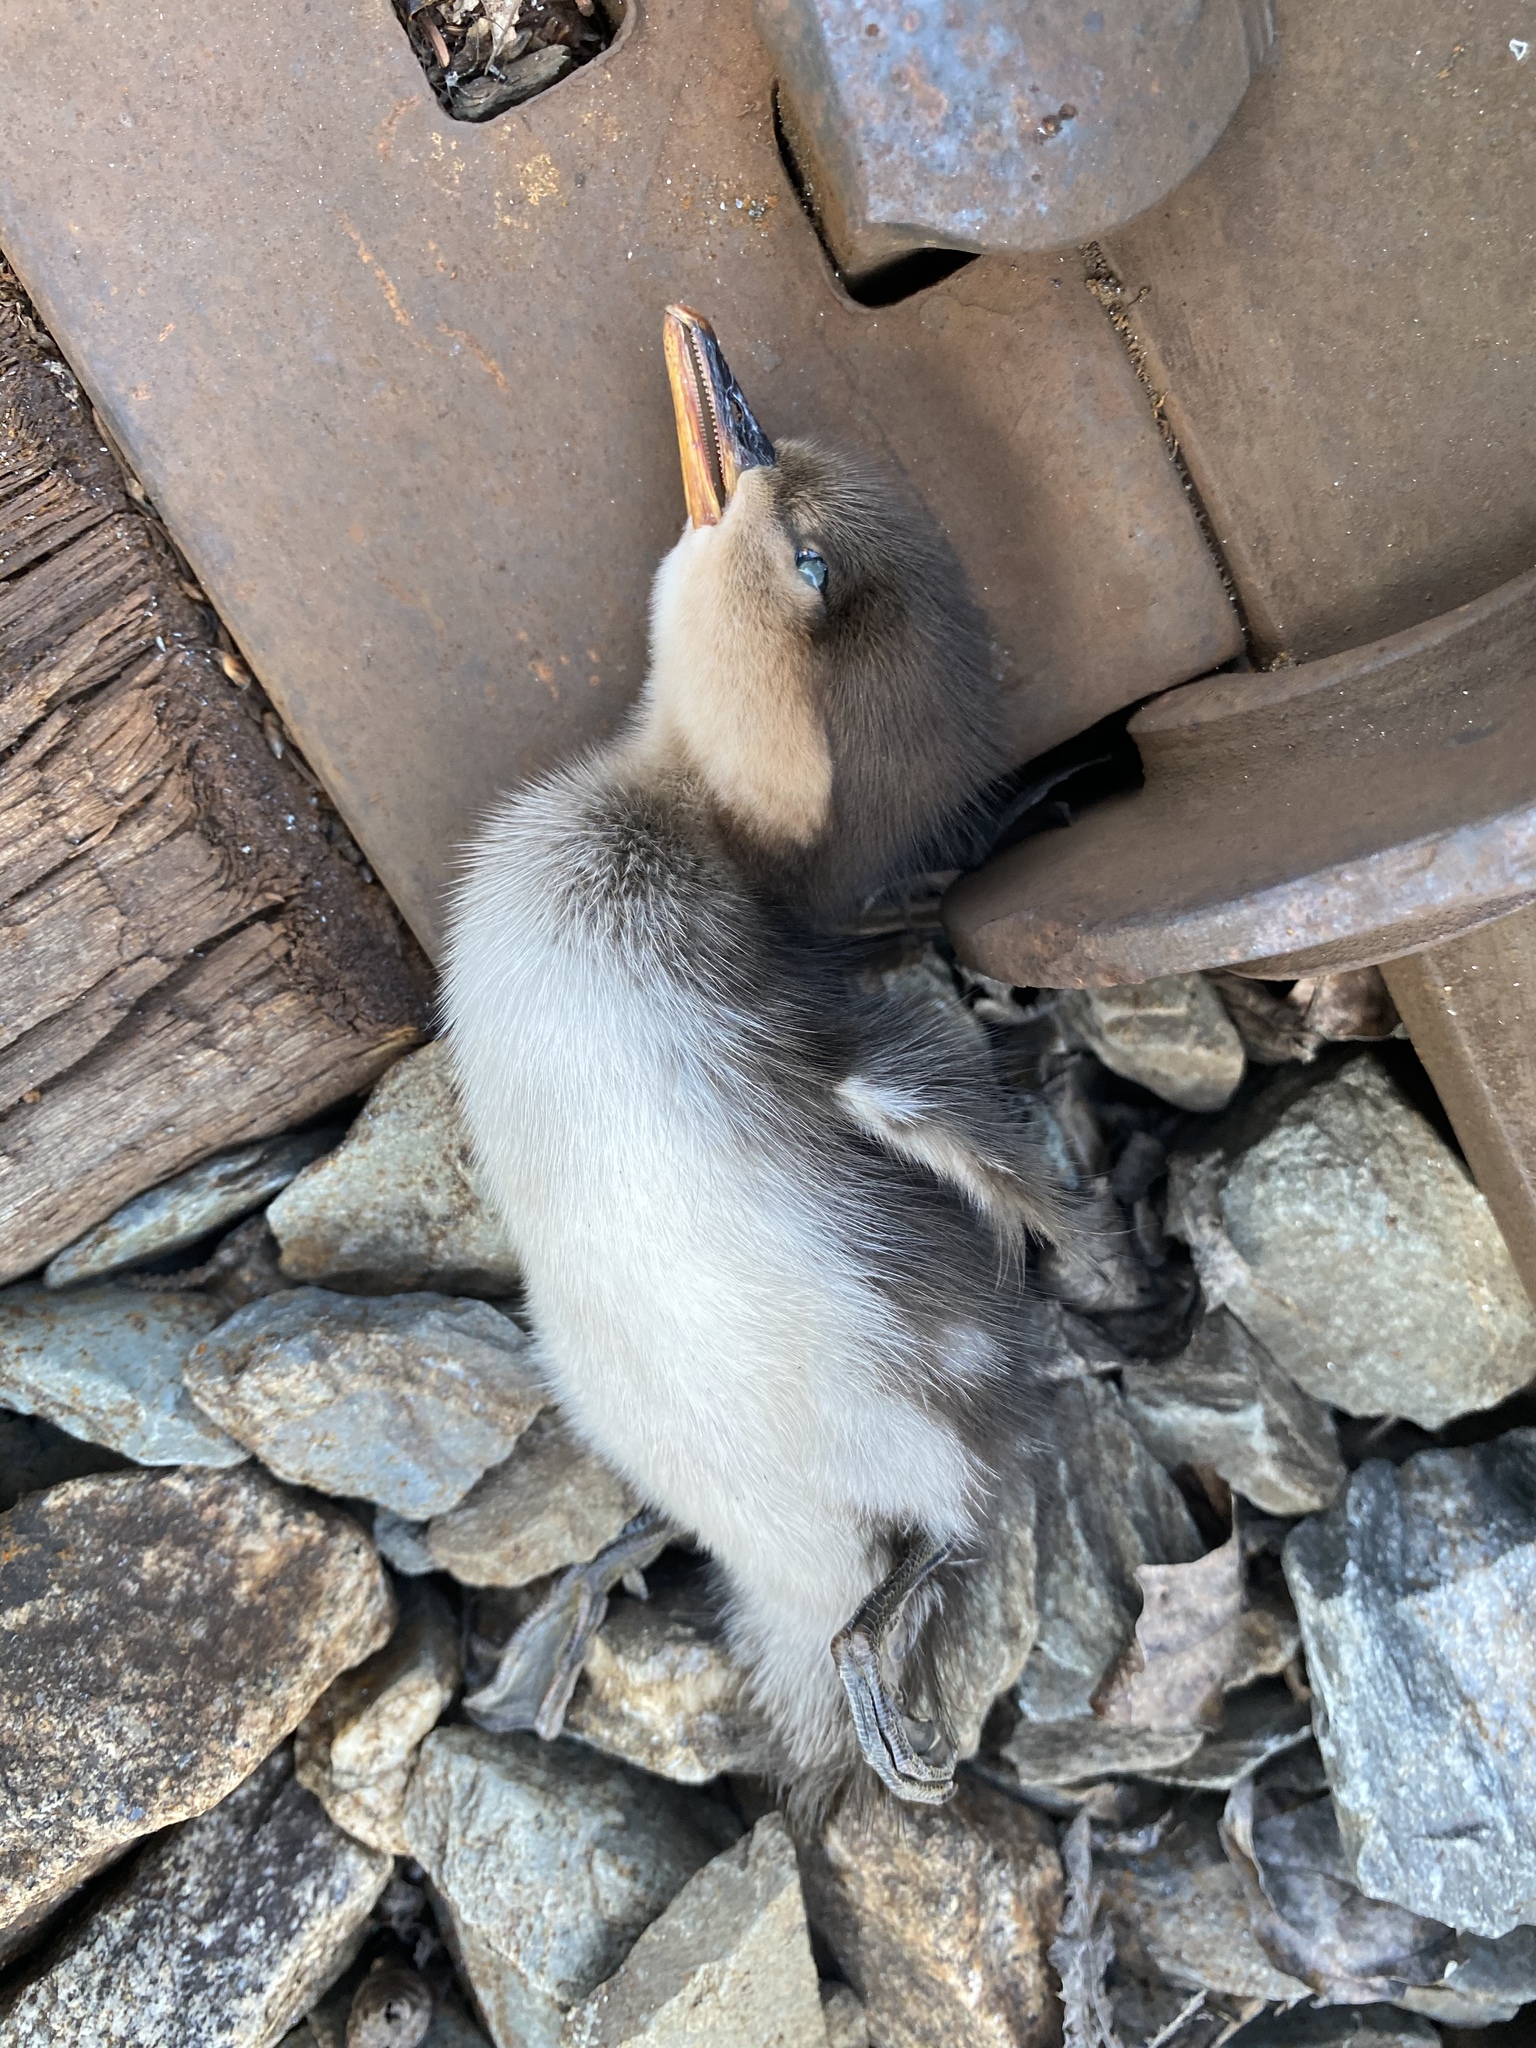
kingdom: Animalia
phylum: Chordata
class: Aves
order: Anseriformes
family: Anatidae
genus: Lophodytes
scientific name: Lophodytes cucullatus
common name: Hooded merganser
